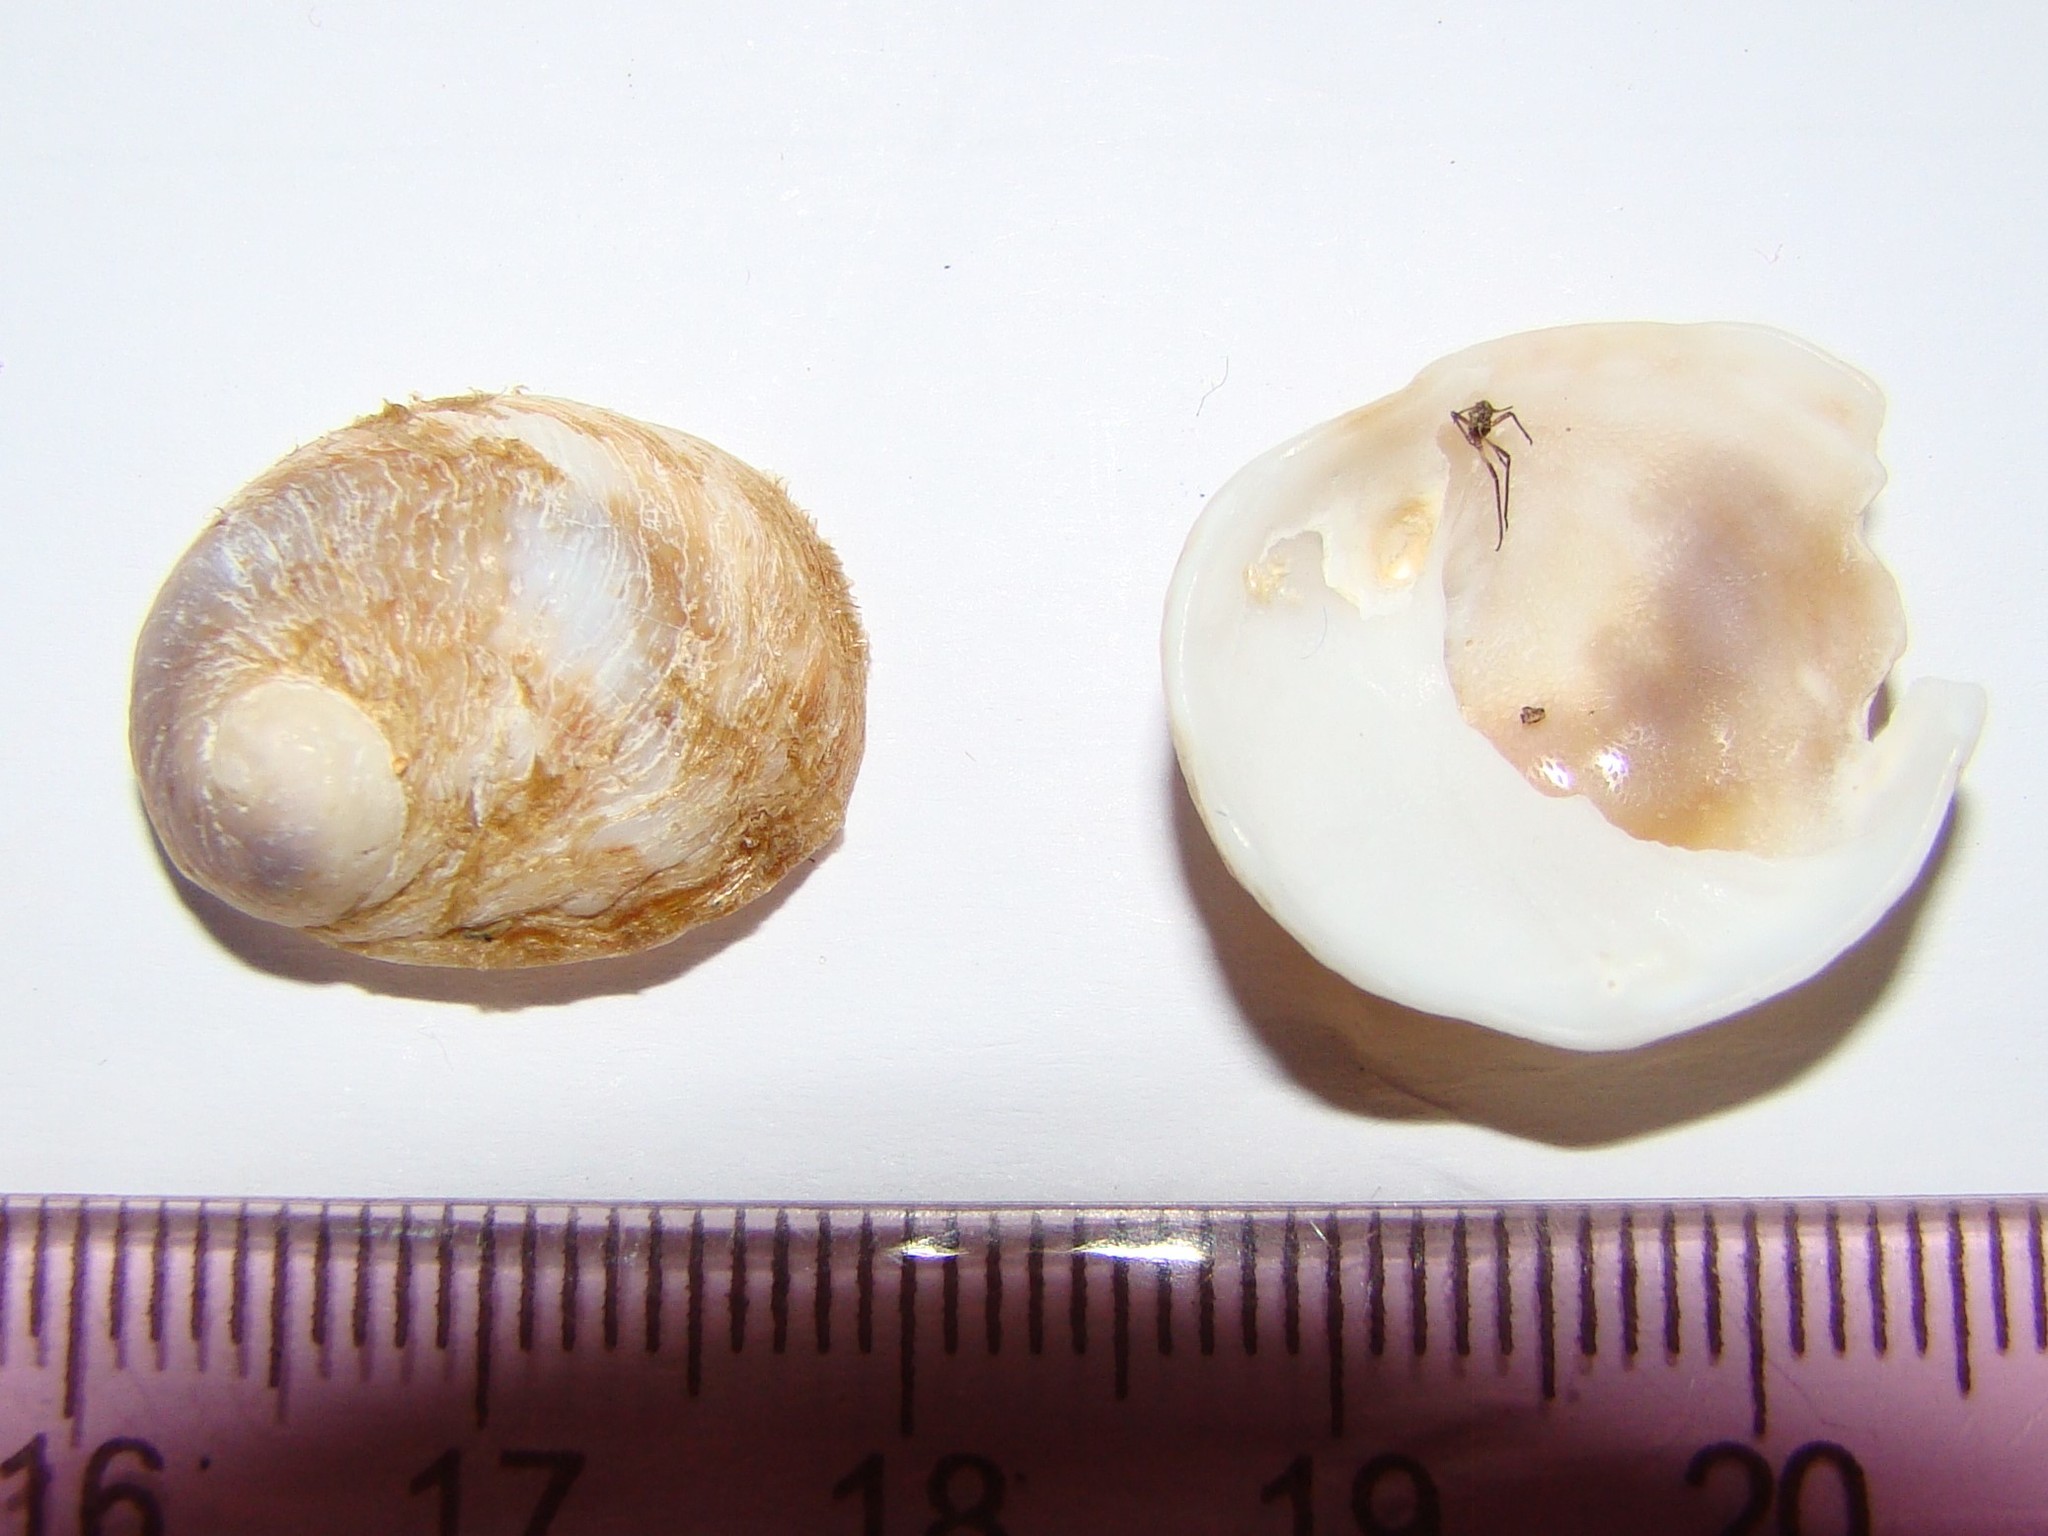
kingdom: Animalia
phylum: Mollusca
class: Gastropoda
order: Littorinimorpha
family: Calyptraeidae
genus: Sigapatella
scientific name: Sigapatella novaezelandiae
